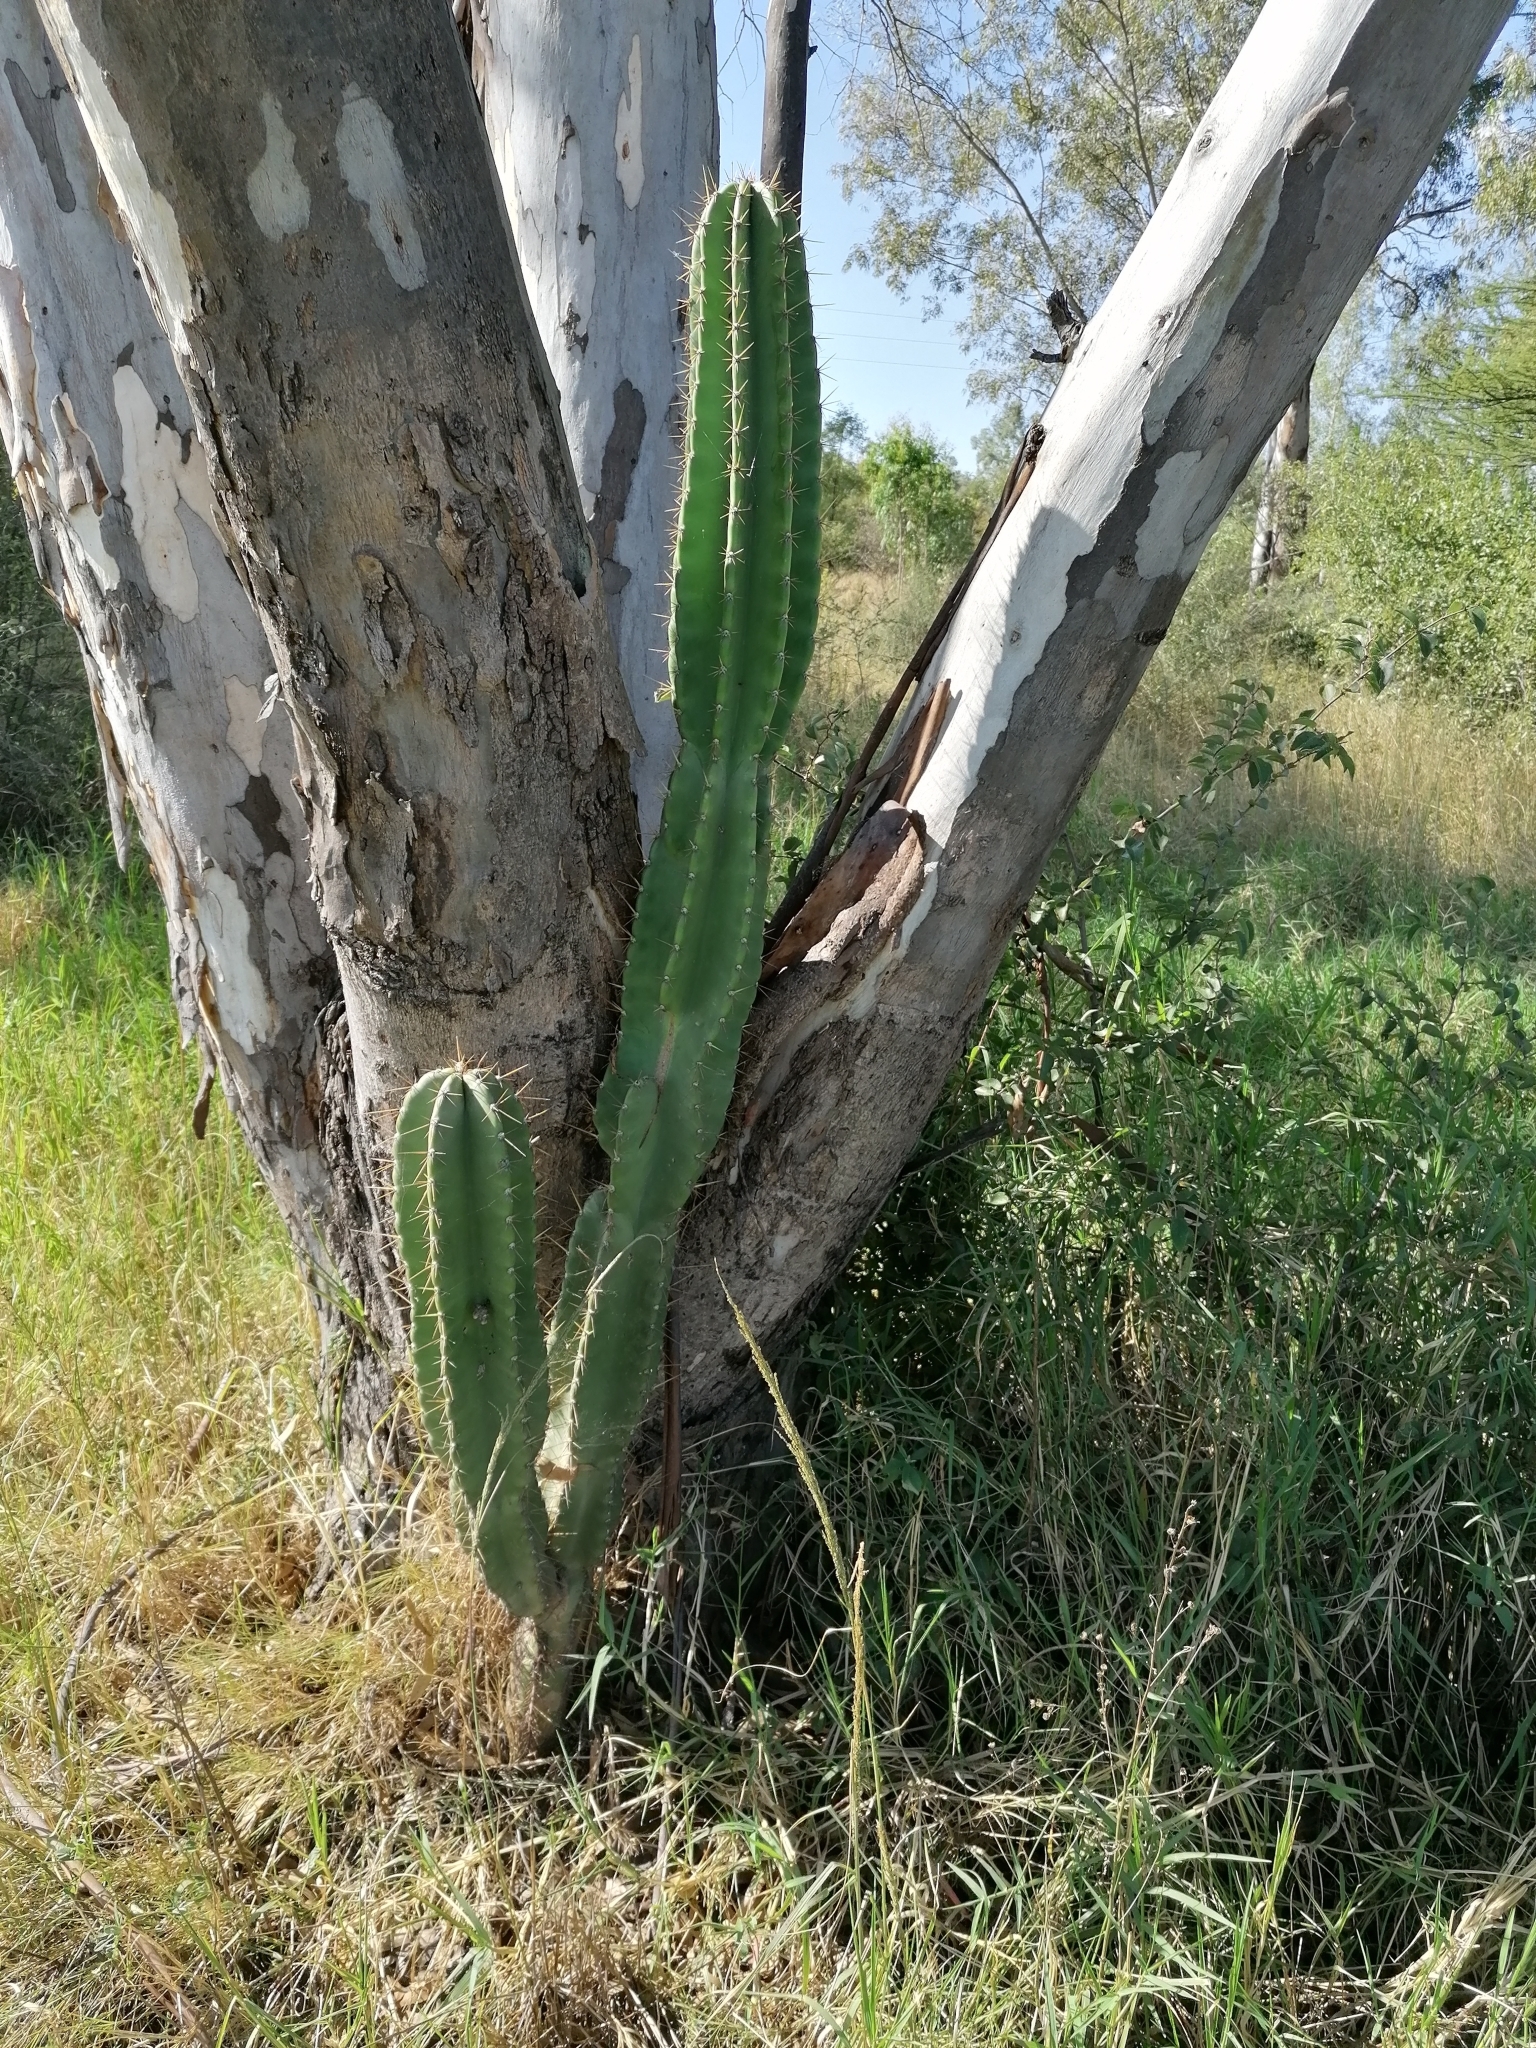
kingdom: Plantae
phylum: Tracheophyta
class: Magnoliopsida
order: Caryophyllales
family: Cactaceae
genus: Cereus
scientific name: Cereus jamacaru
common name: Queen-of-the-night
